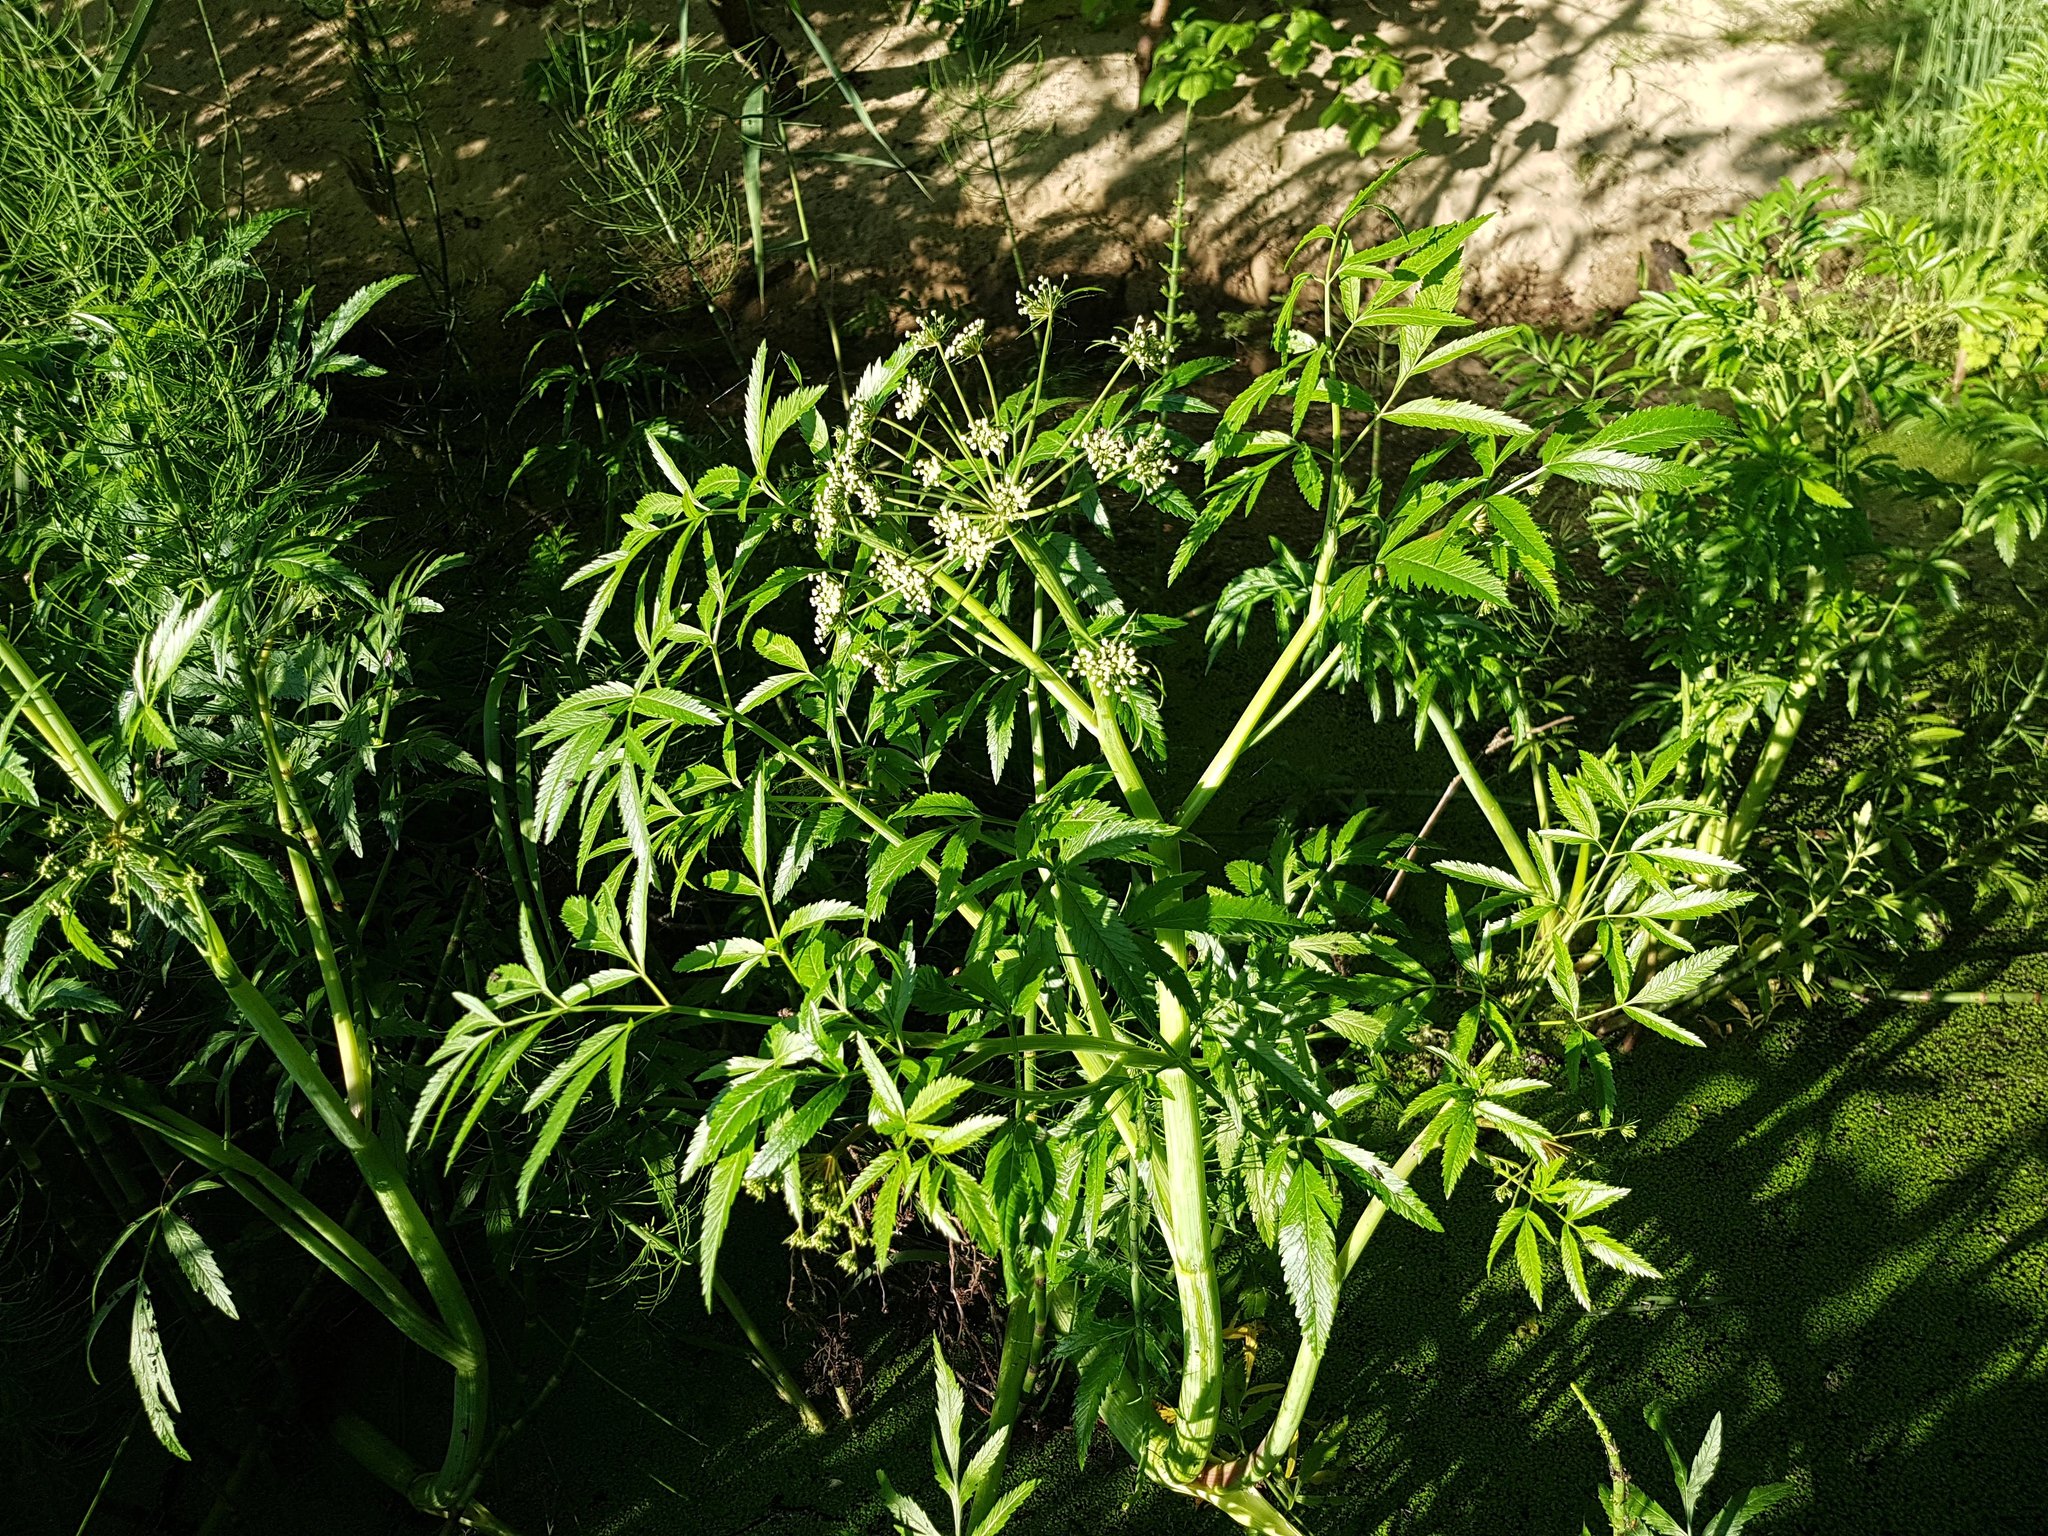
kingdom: Plantae
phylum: Tracheophyta
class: Magnoliopsida
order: Apiales
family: Apiaceae
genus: Cicuta
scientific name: Cicuta virosa
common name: Cowbane
